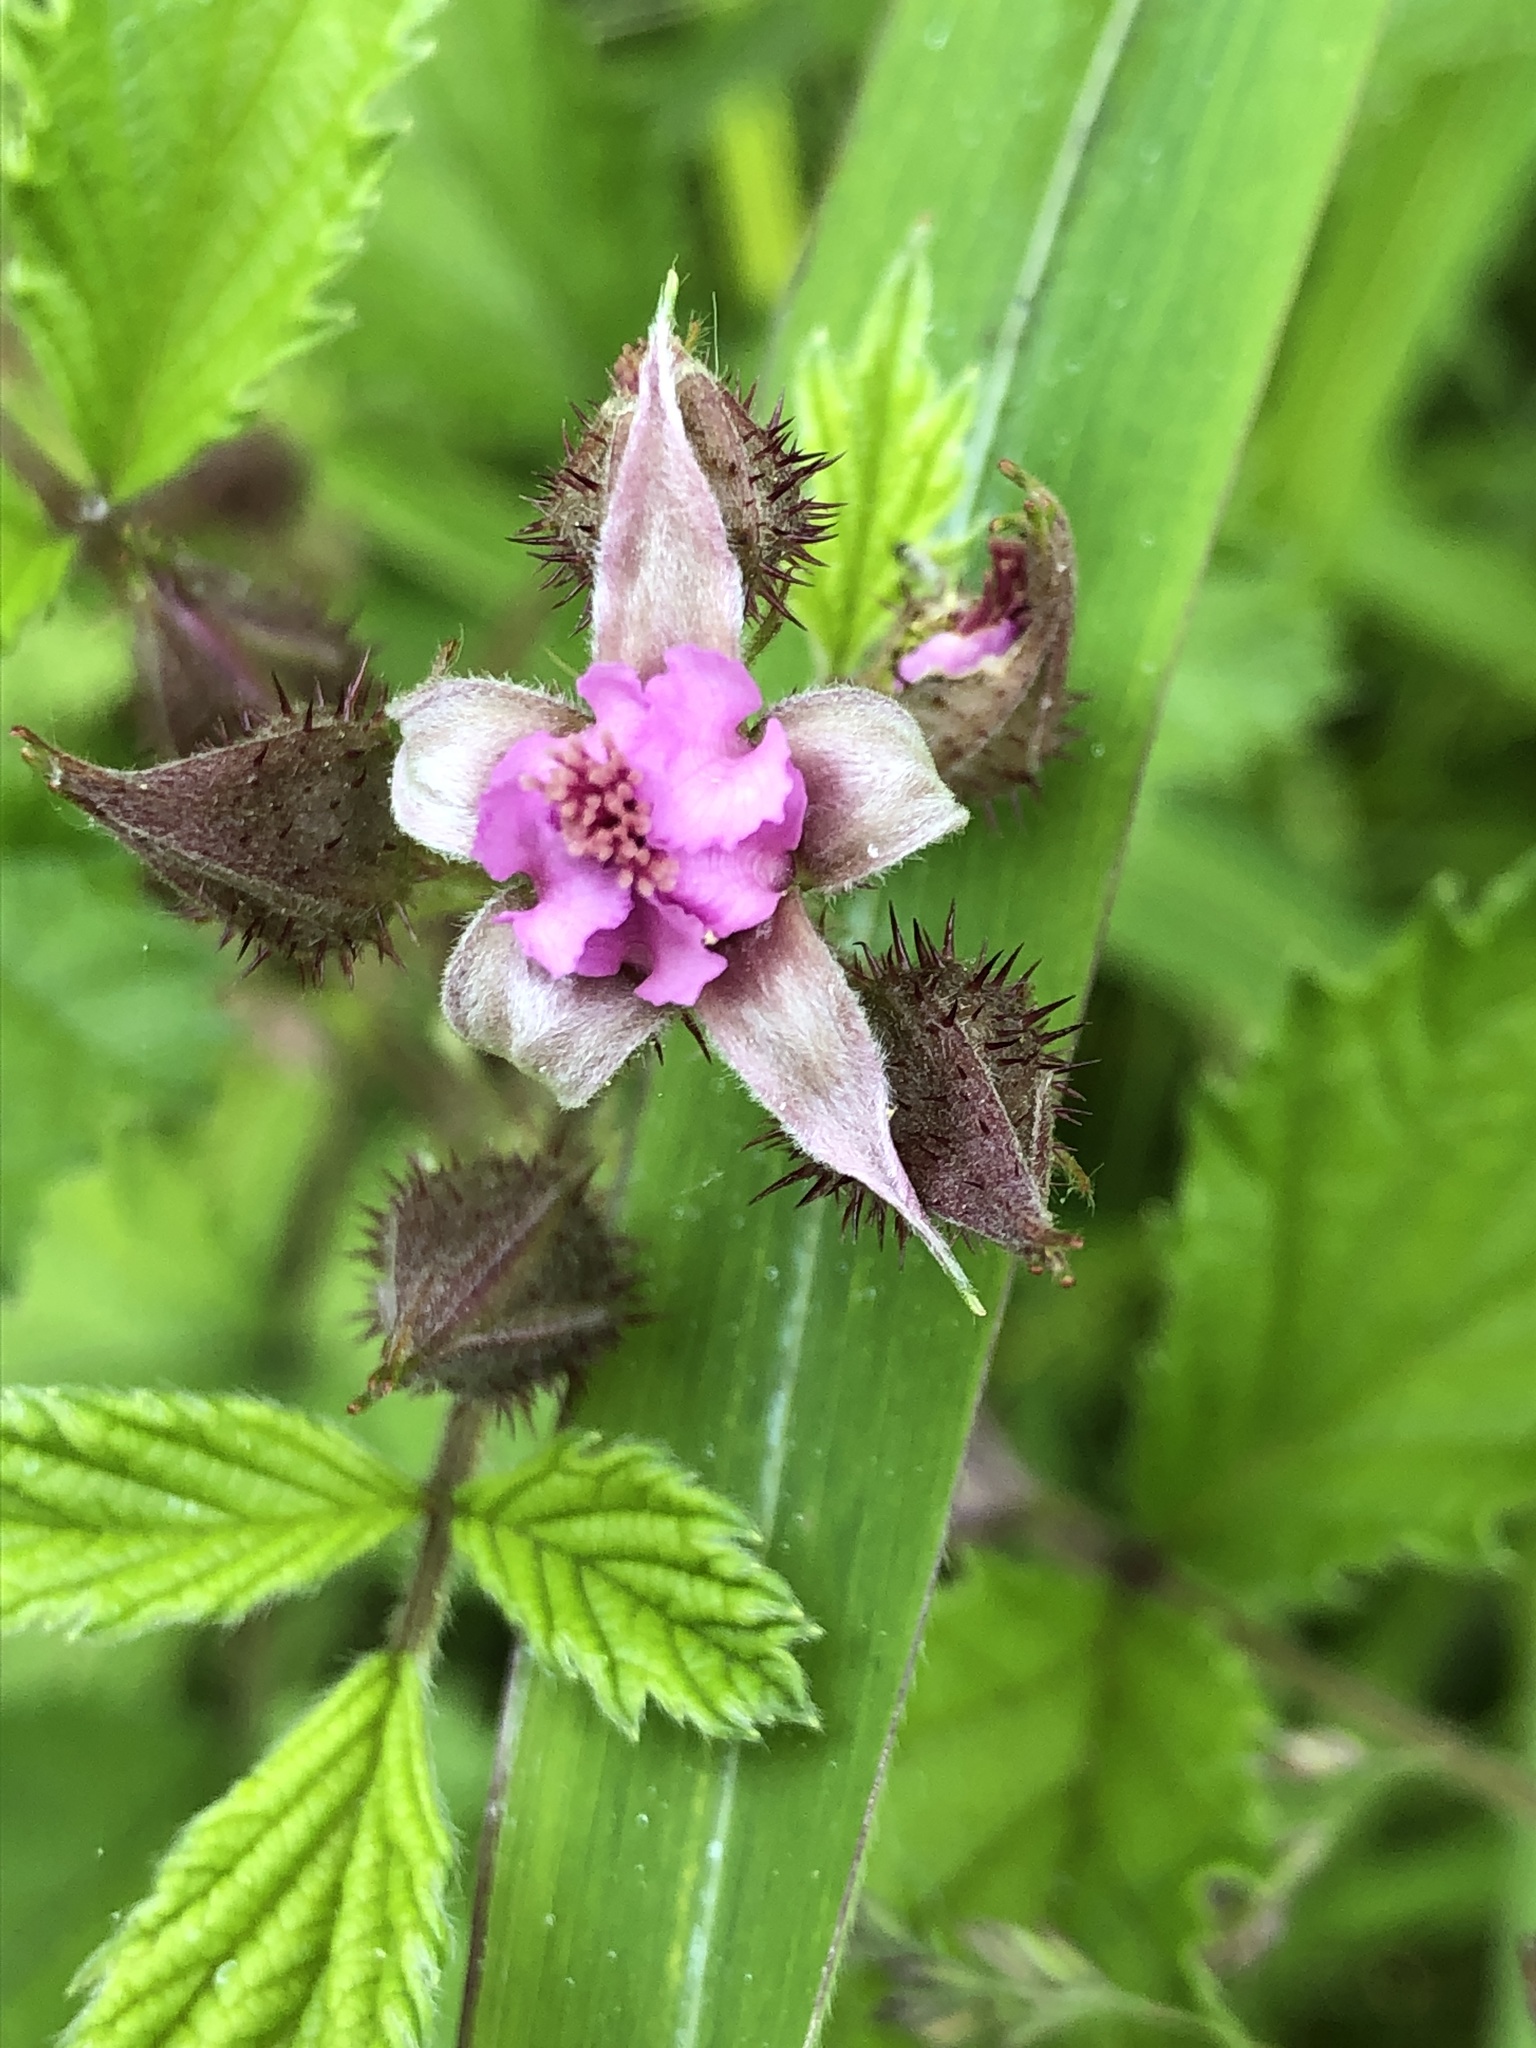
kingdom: Plantae
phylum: Tracheophyta
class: Magnoliopsida
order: Rosales
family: Rosaceae
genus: Rubus
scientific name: Rubus parvifolius
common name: Threeleaf blackberry
